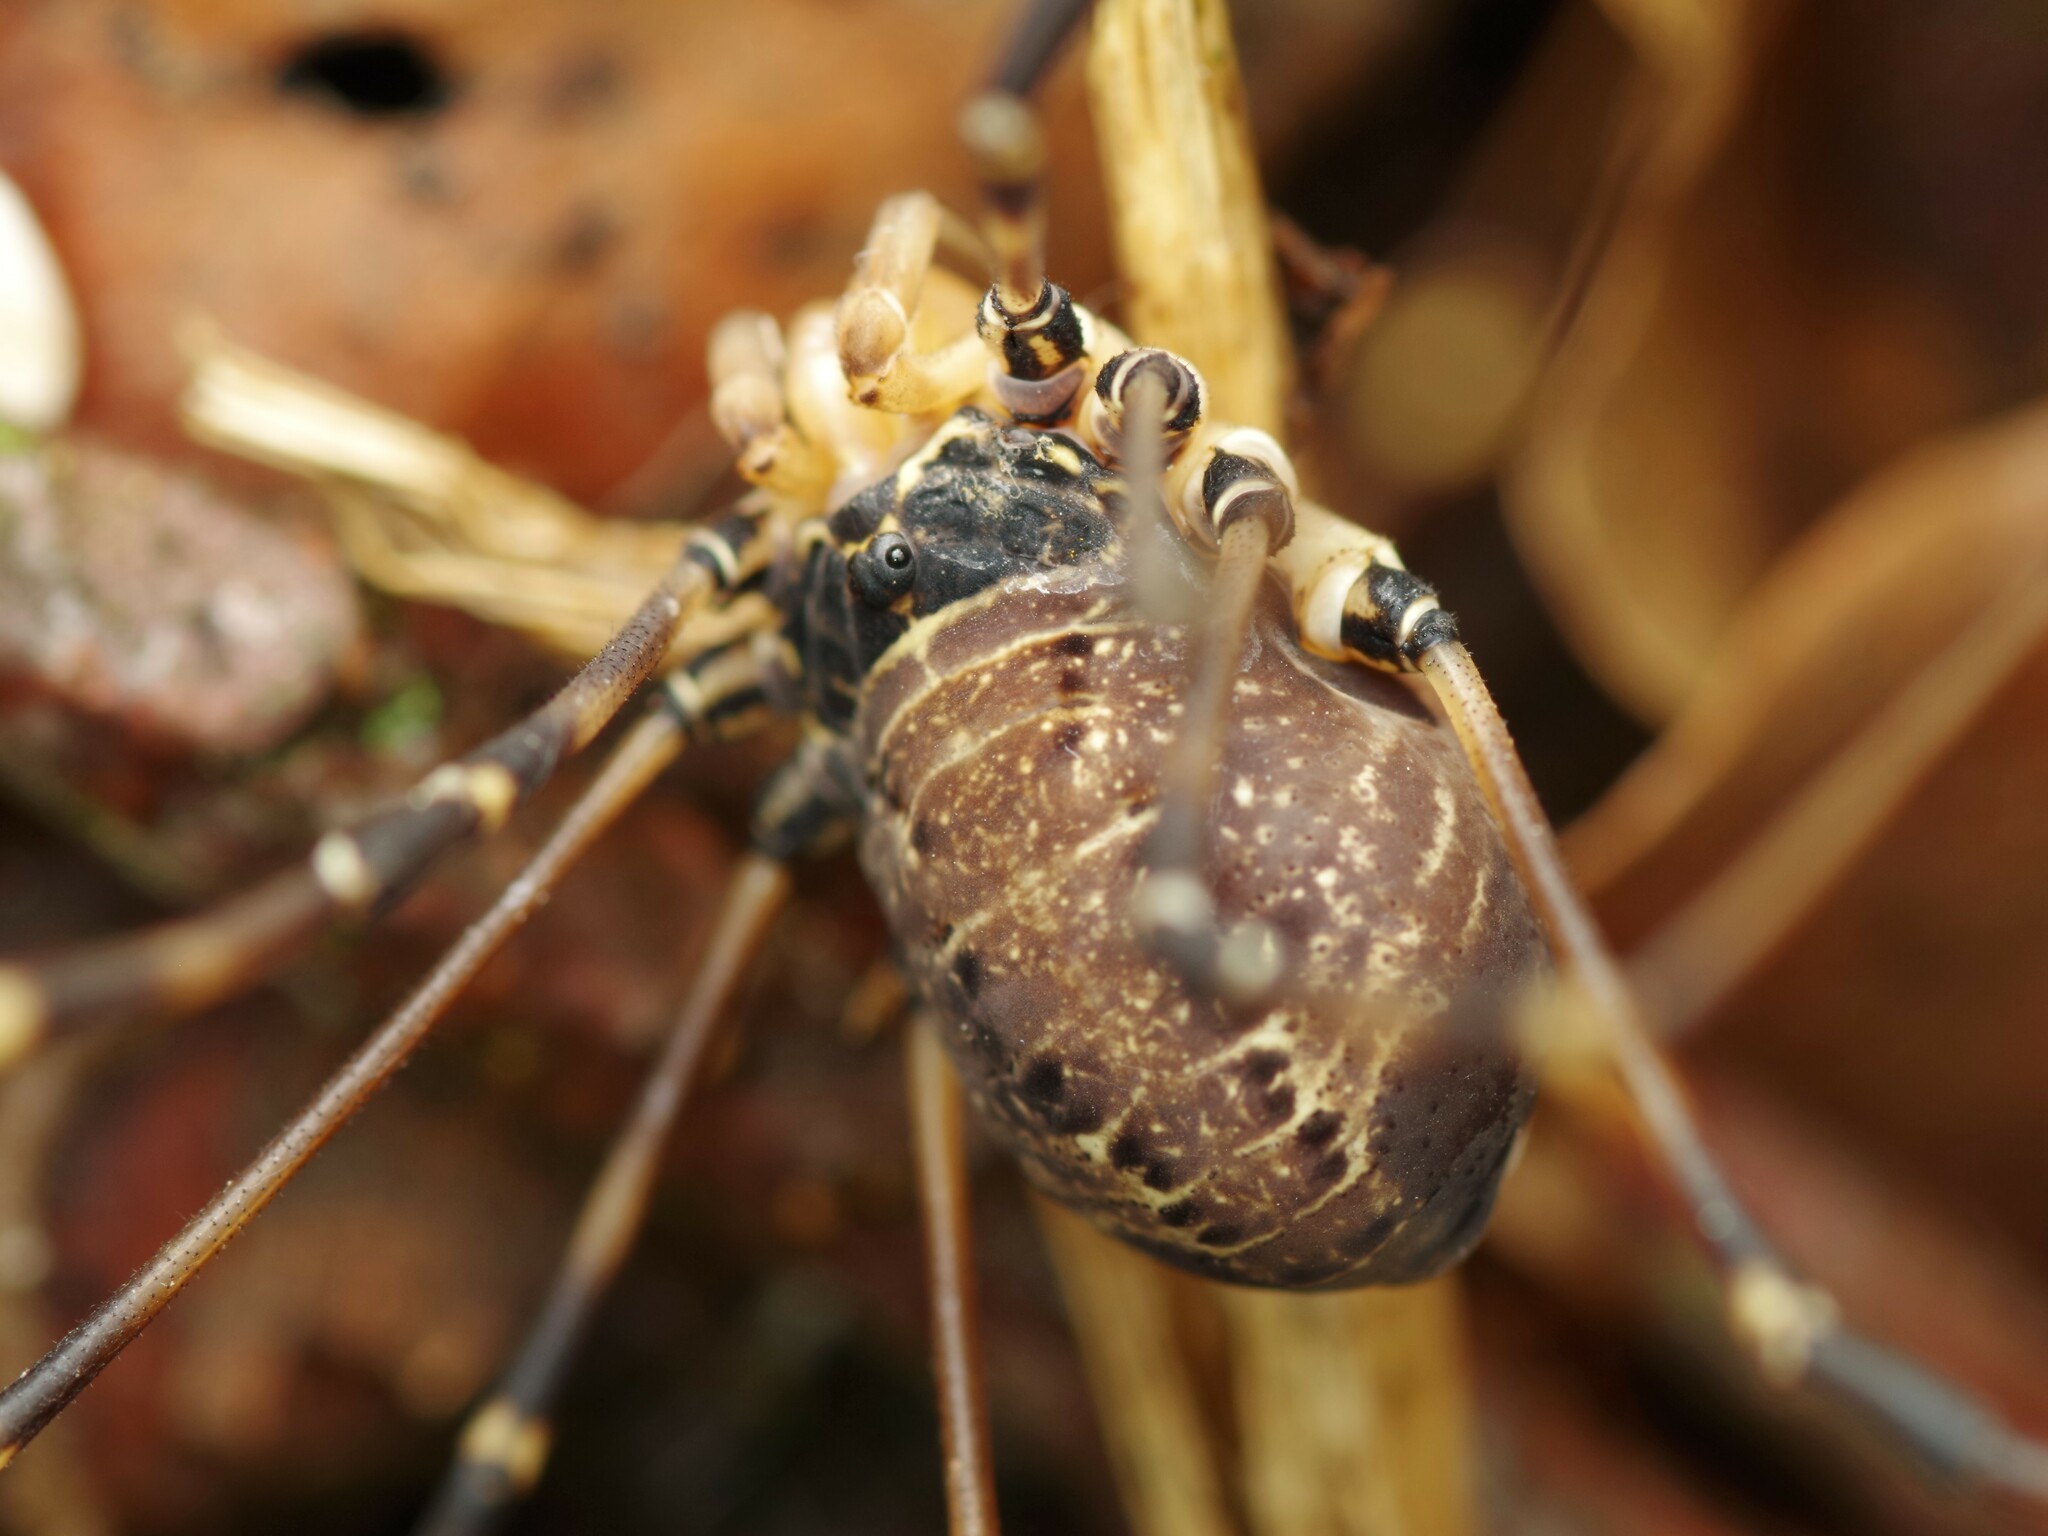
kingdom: Animalia
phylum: Arthropoda
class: Arachnida
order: Opiliones
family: Sclerosomatidae
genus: Gyas
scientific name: Gyas titanus
